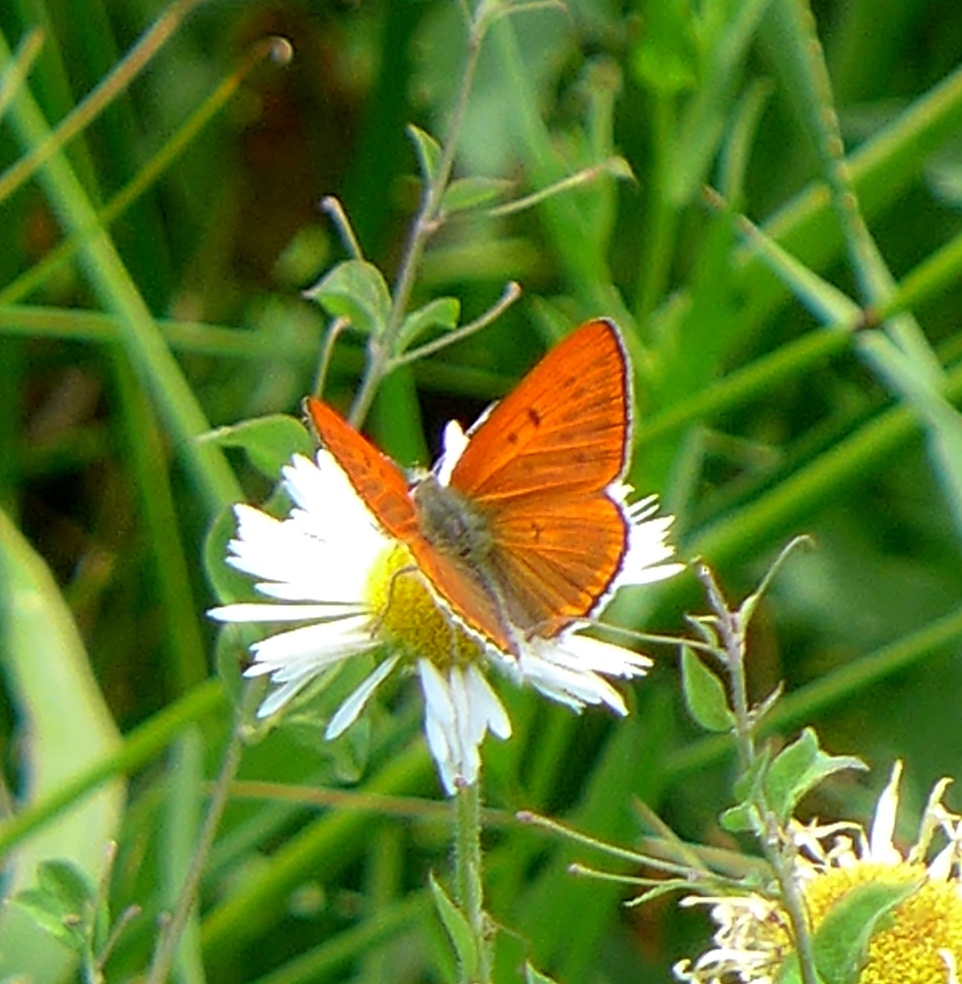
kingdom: Animalia
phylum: Arthropoda
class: Insecta
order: Lepidoptera
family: Lycaenidae
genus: Tharsalea
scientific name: Tharsalea rubidus
